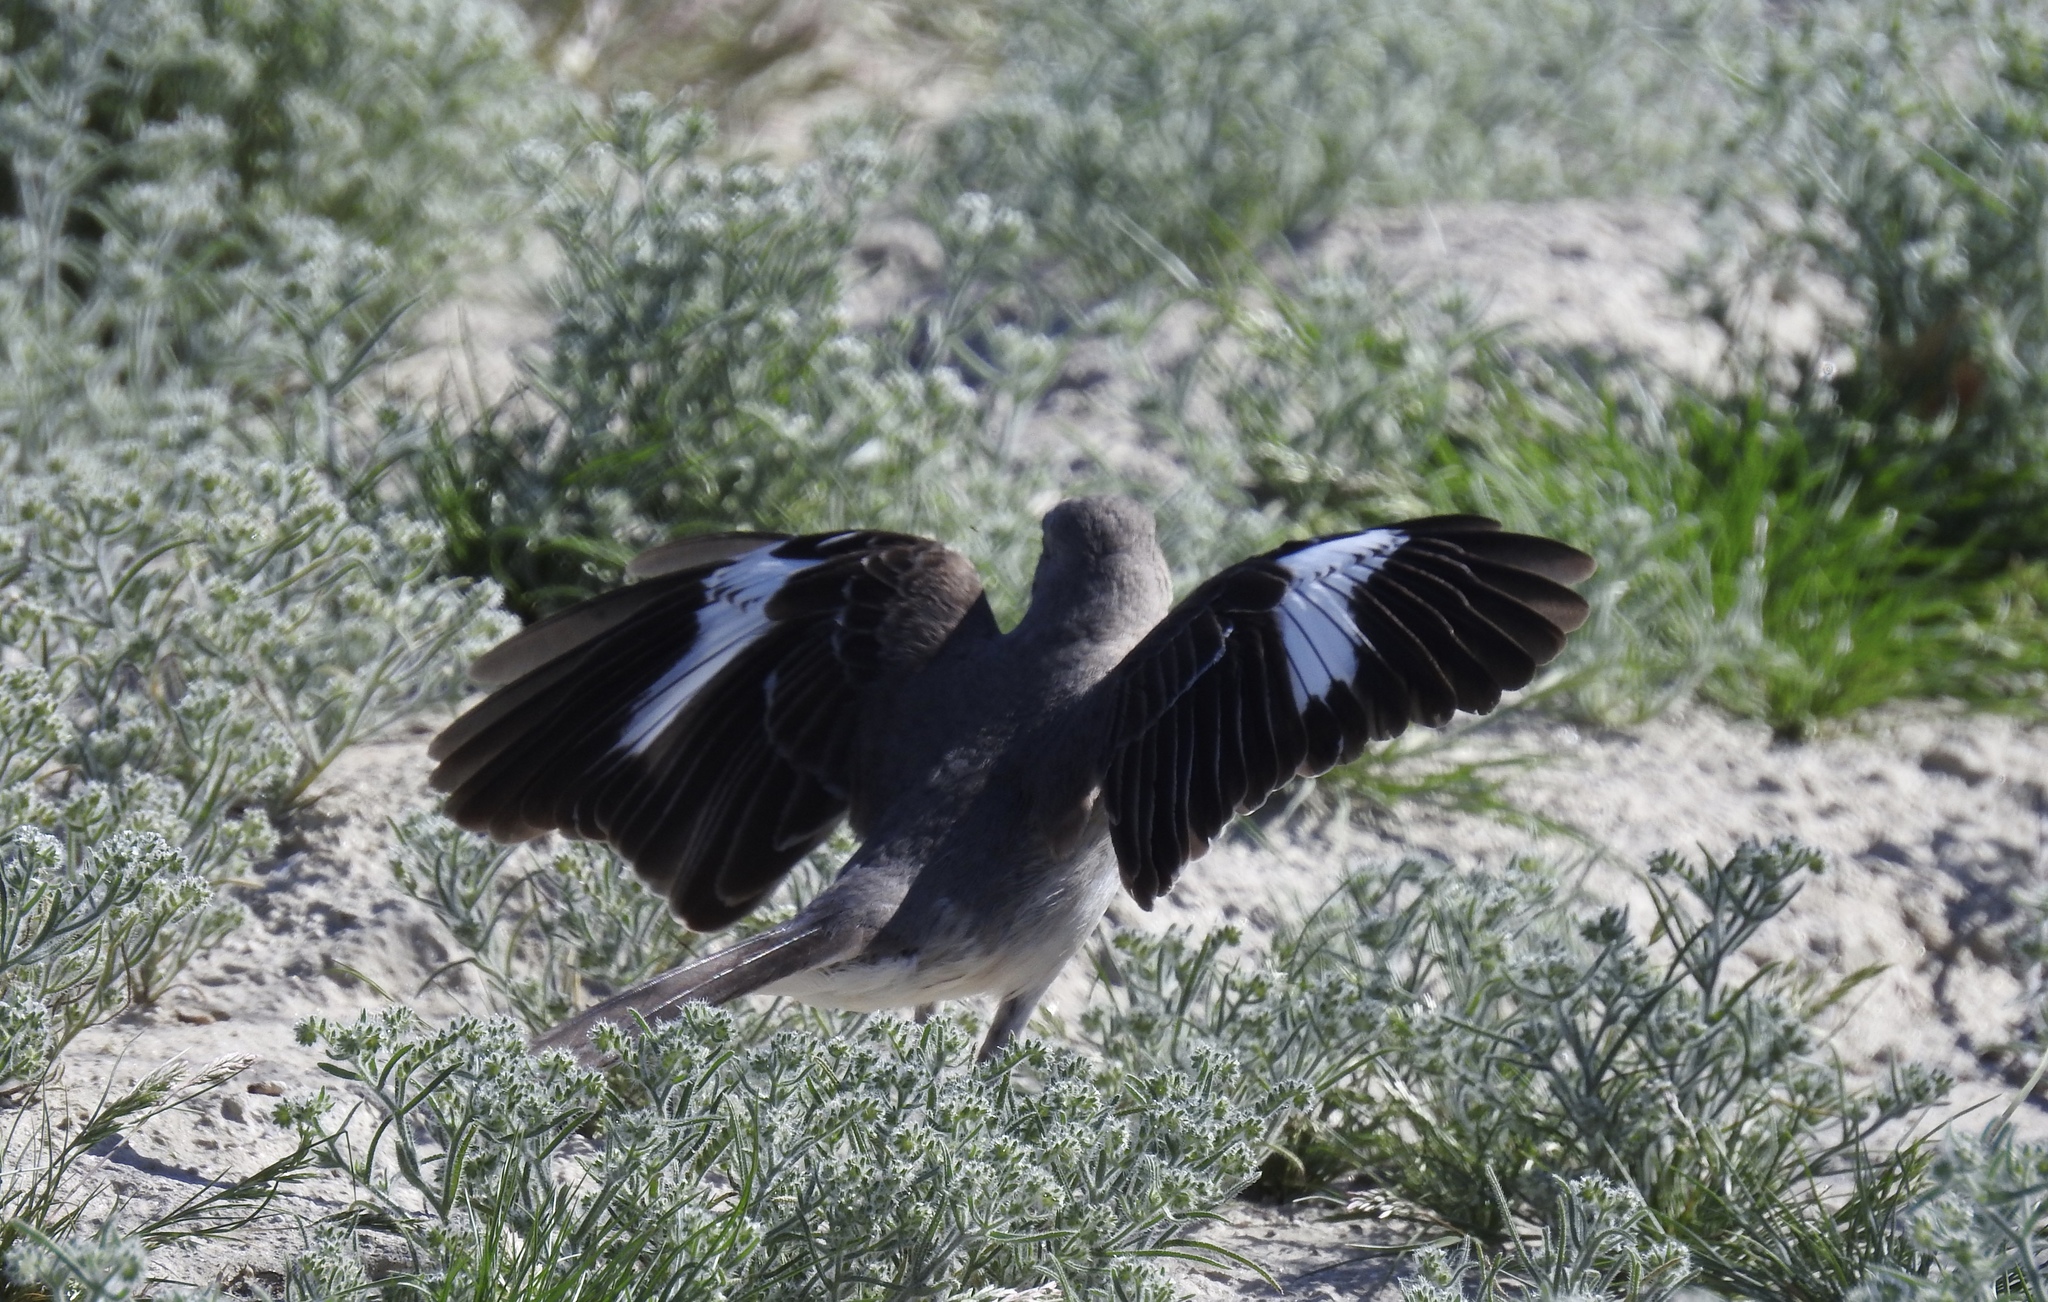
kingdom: Animalia
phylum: Chordata
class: Aves
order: Passeriformes
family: Mimidae
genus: Mimus
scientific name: Mimus polyglottos
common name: Northern mockingbird
